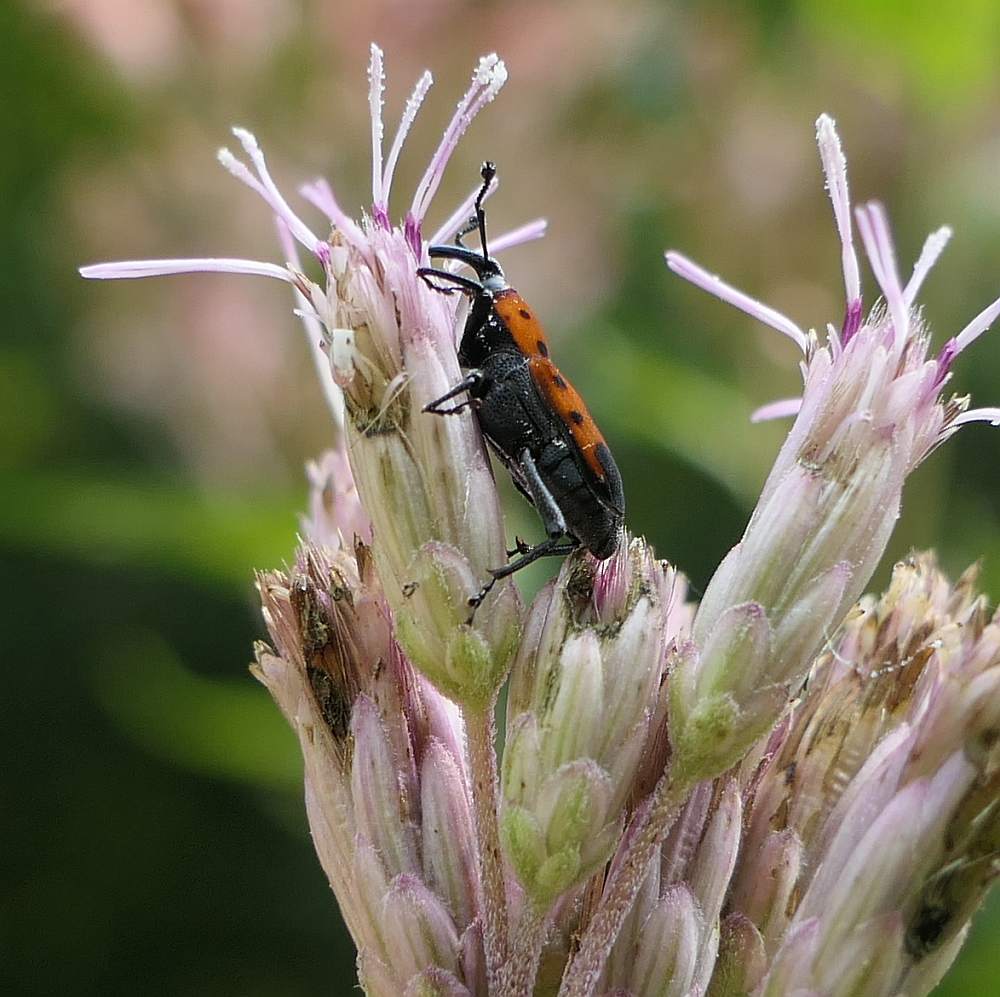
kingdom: Animalia
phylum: Arthropoda
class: Insecta
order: Coleoptera
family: Dryophthoridae
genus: Rhodobaenus
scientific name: Rhodobaenus quinquepunctatus
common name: Cocklebur weevil
